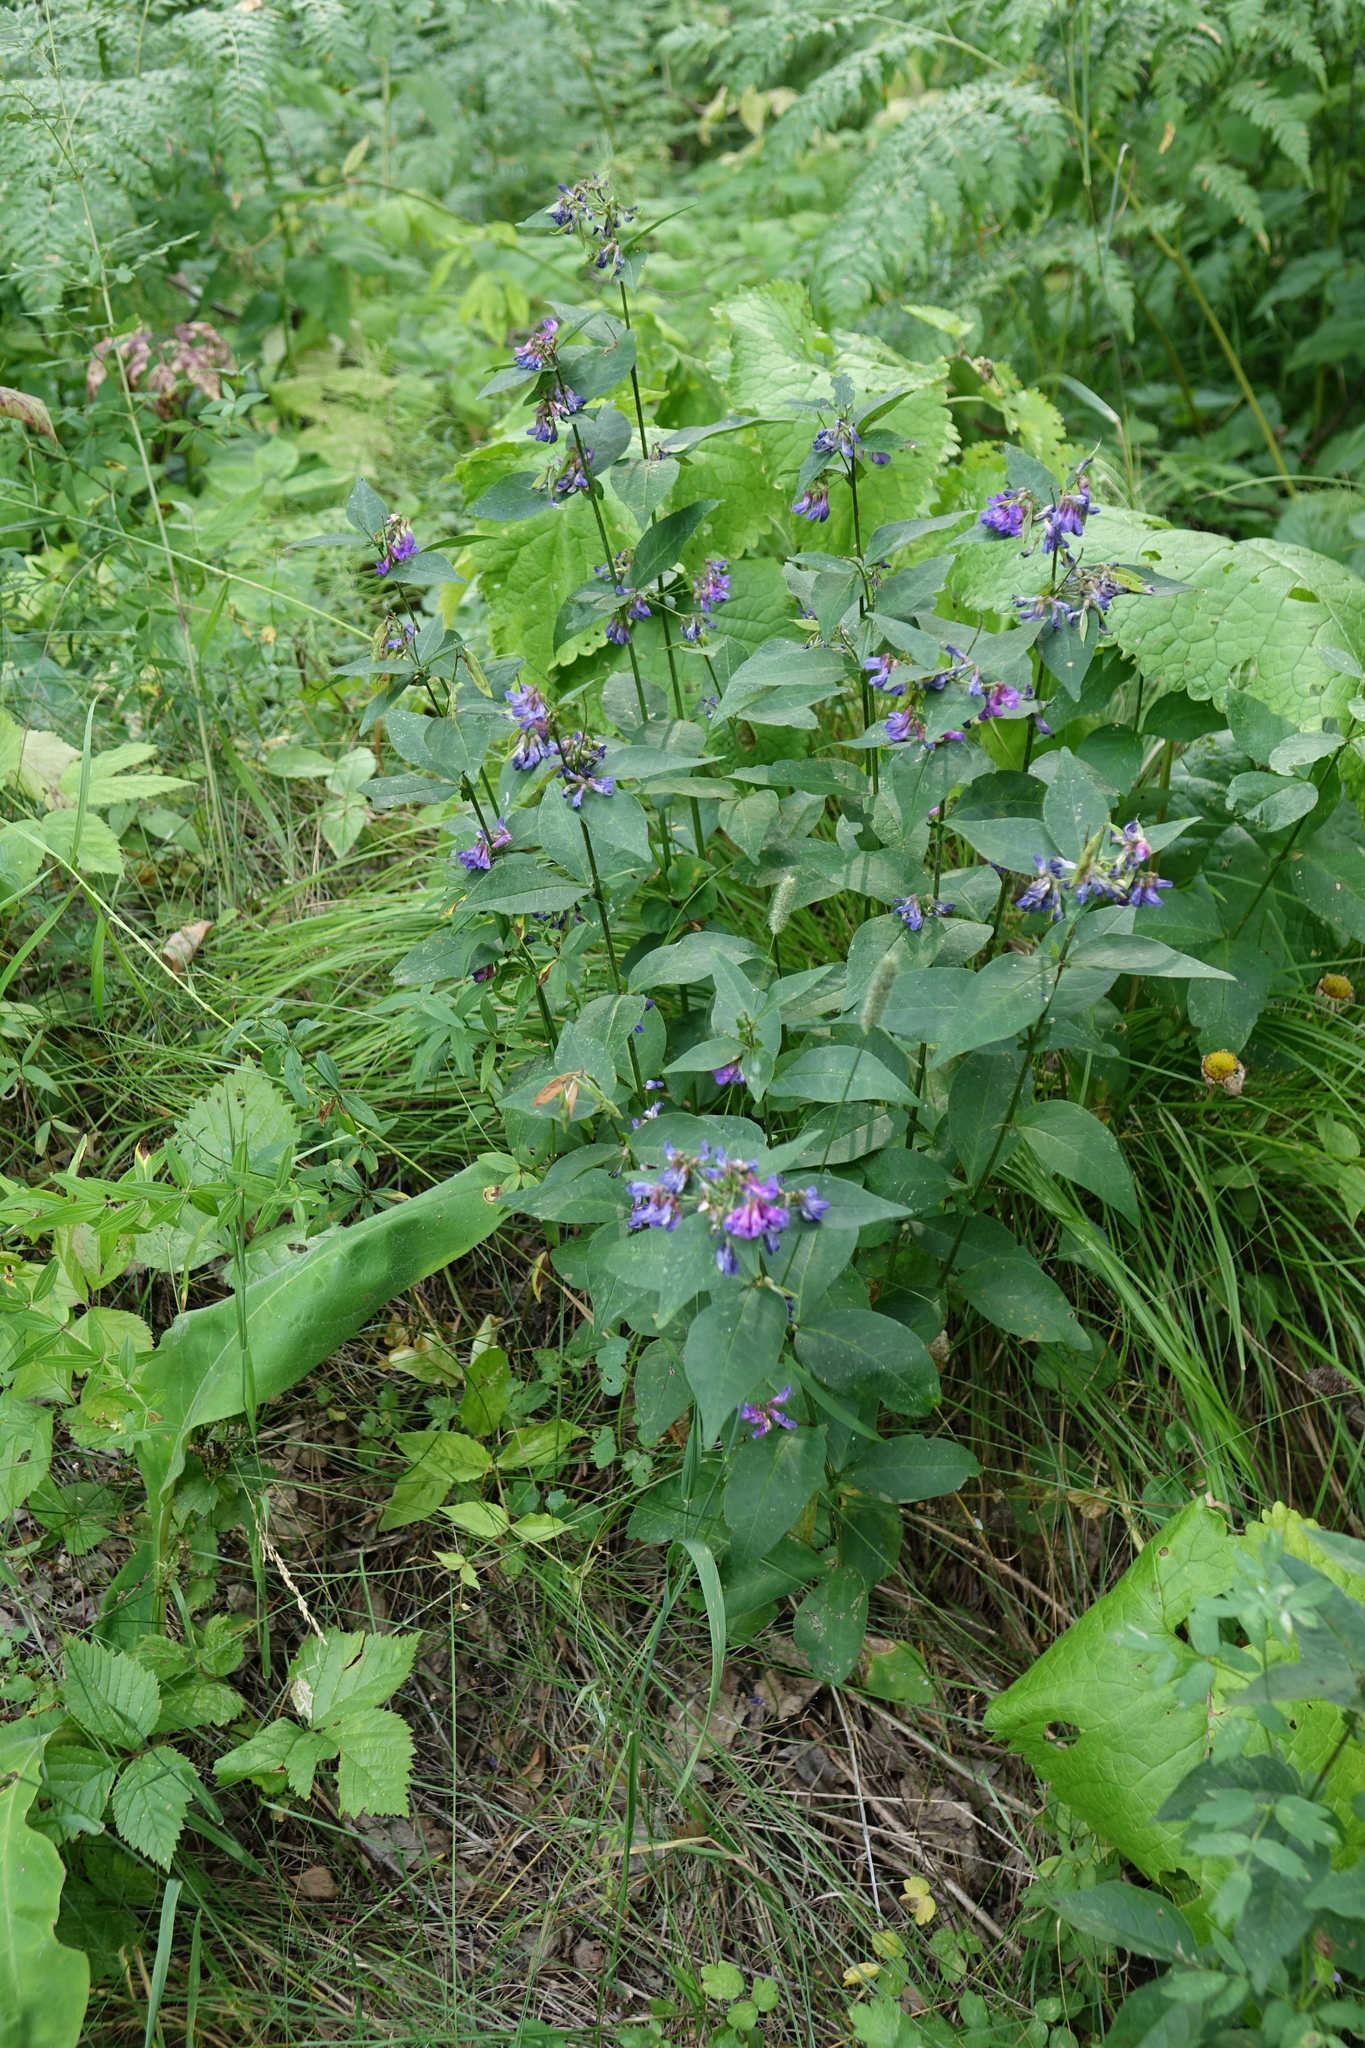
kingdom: Plantae
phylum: Tracheophyta
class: Magnoliopsida
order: Fabales
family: Fabaceae
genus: Vicia
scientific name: Vicia unijuga
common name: Two-leaf vetch
